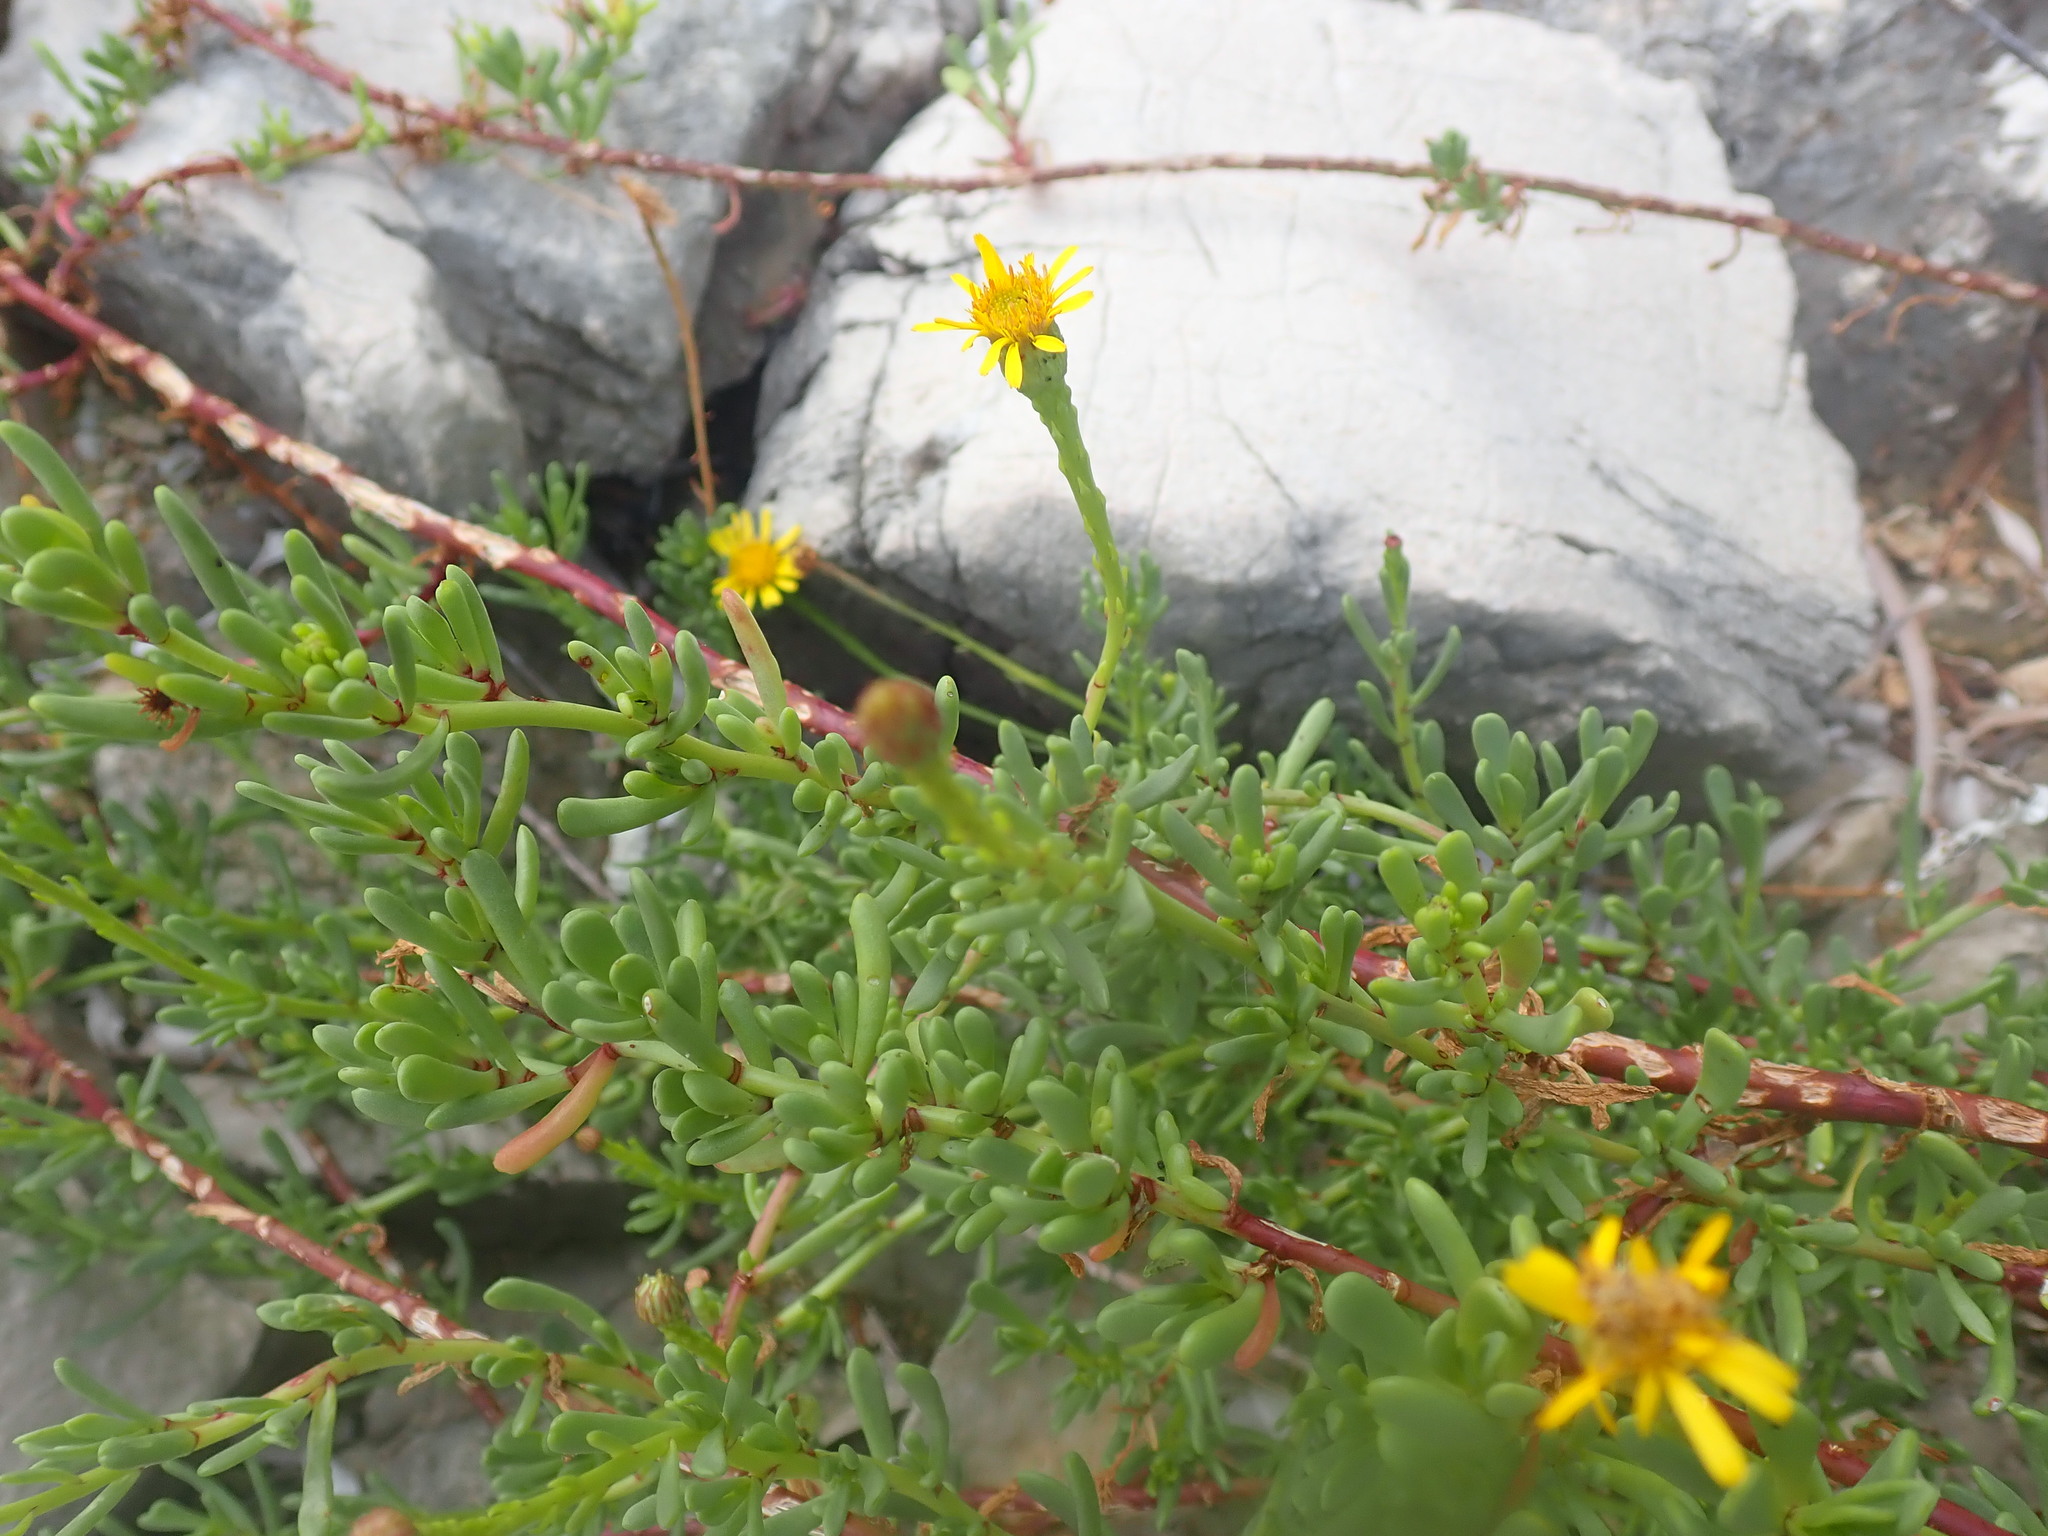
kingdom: Plantae
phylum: Tracheophyta
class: Magnoliopsida
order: Asterales
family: Asteraceae
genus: Limbarda
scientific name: Limbarda crithmoides
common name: Golden samphire
